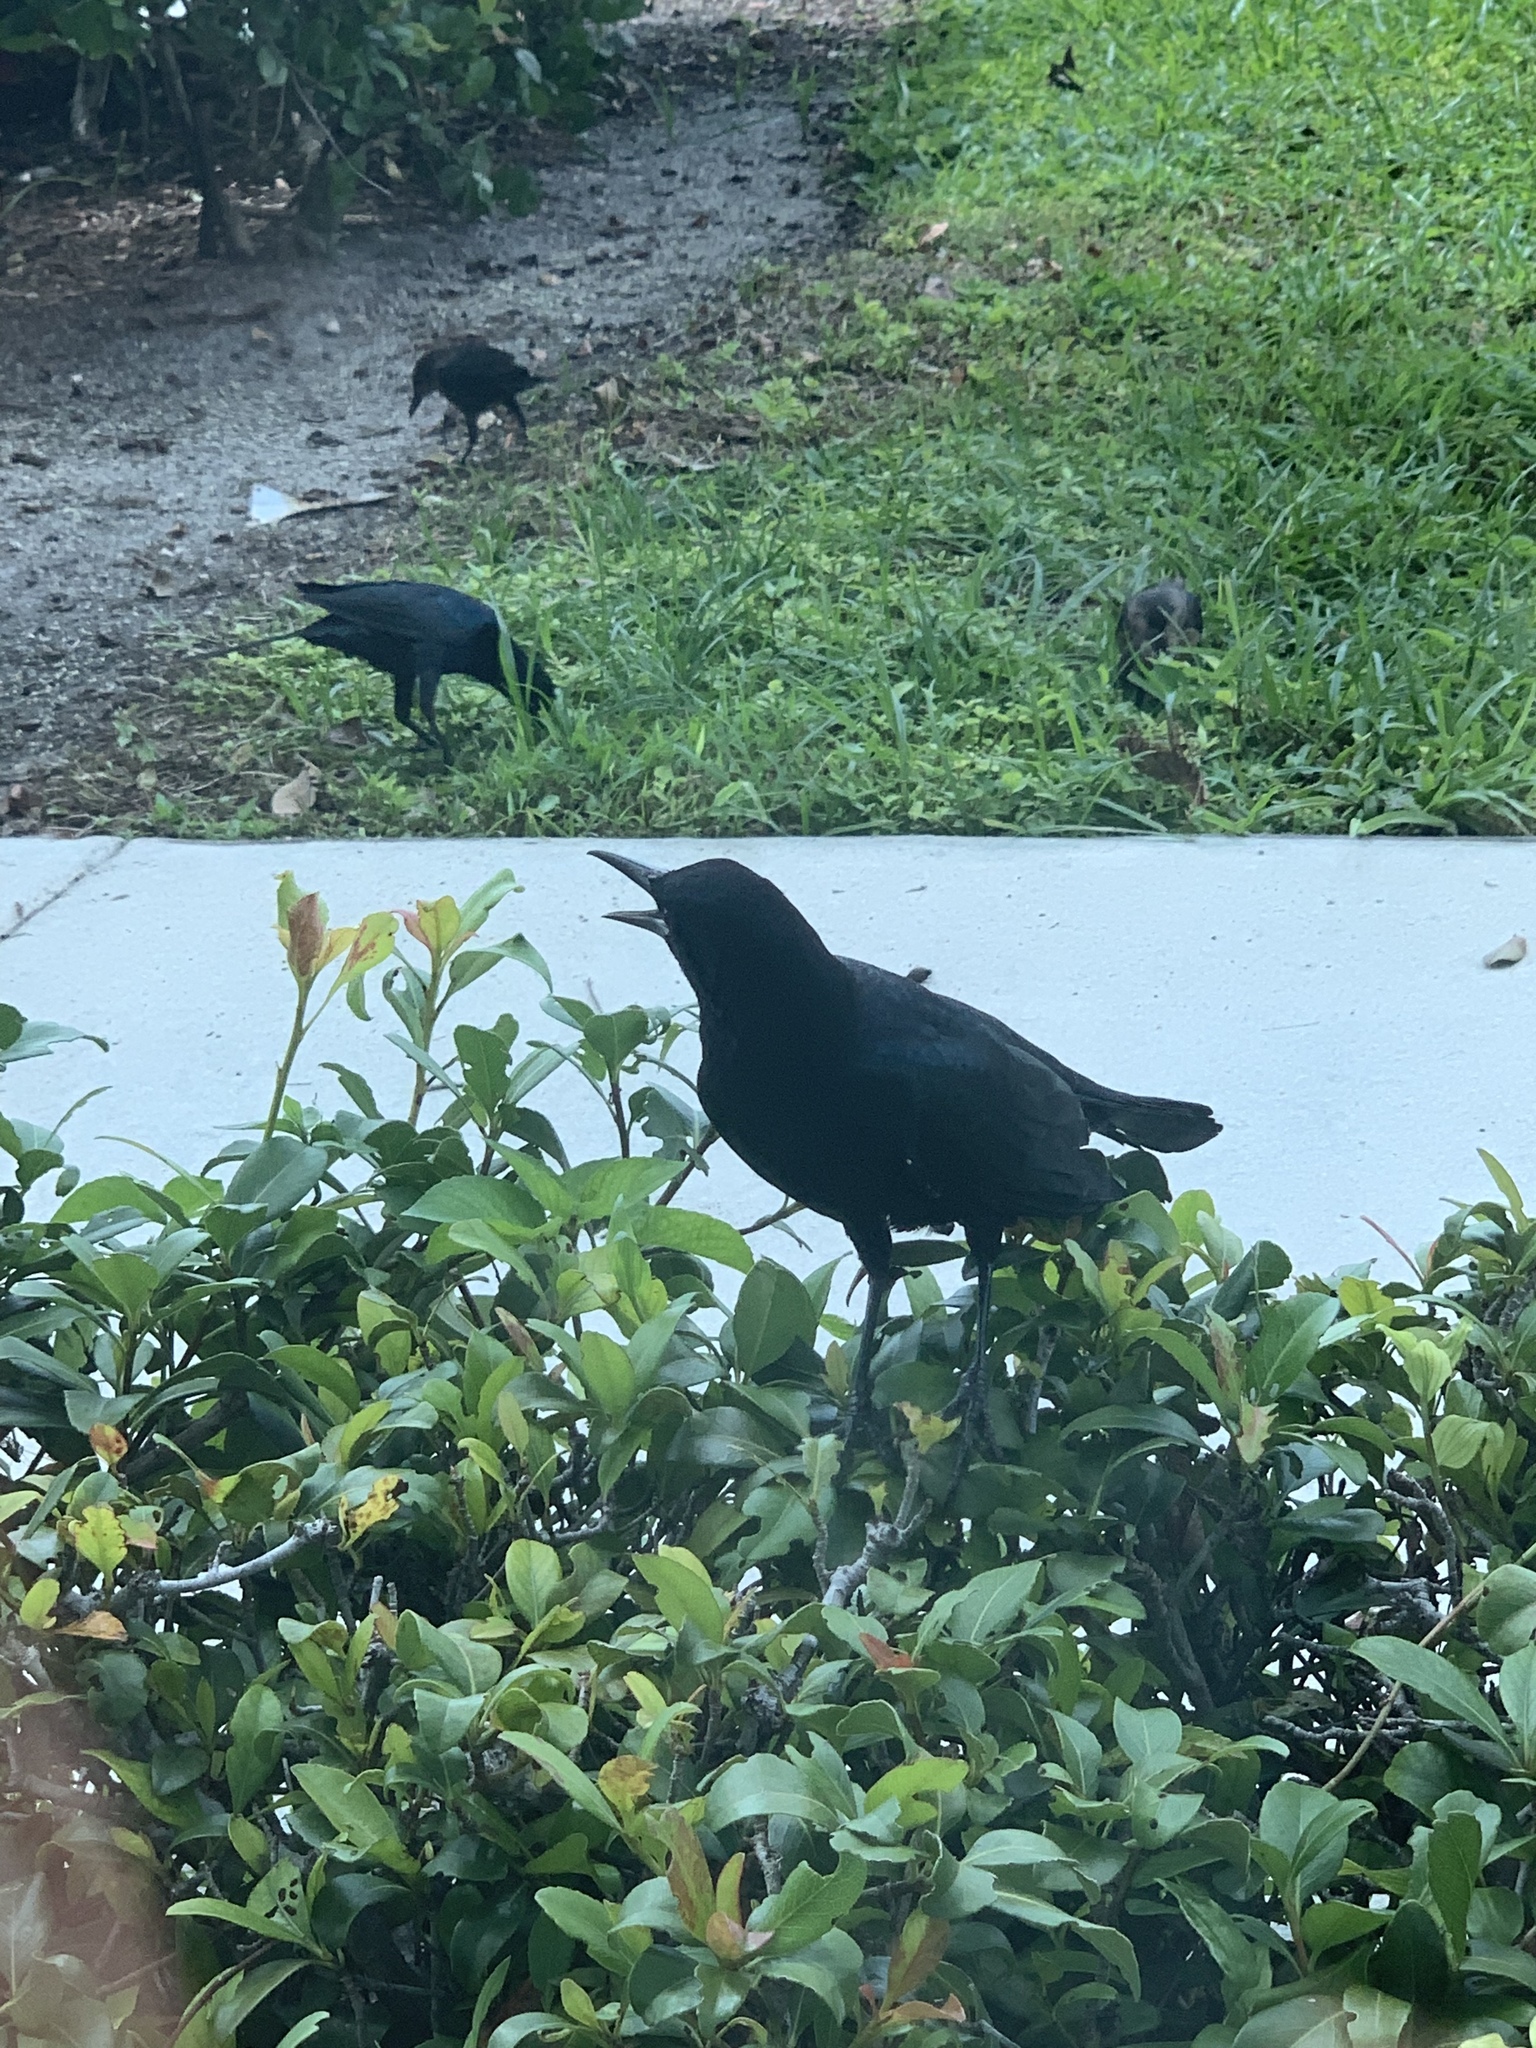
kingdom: Animalia
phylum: Chordata
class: Aves
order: Passeriformes
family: Icteridae
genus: Quiscalus
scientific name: Quiscalus major
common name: Boat-tailed grackle
